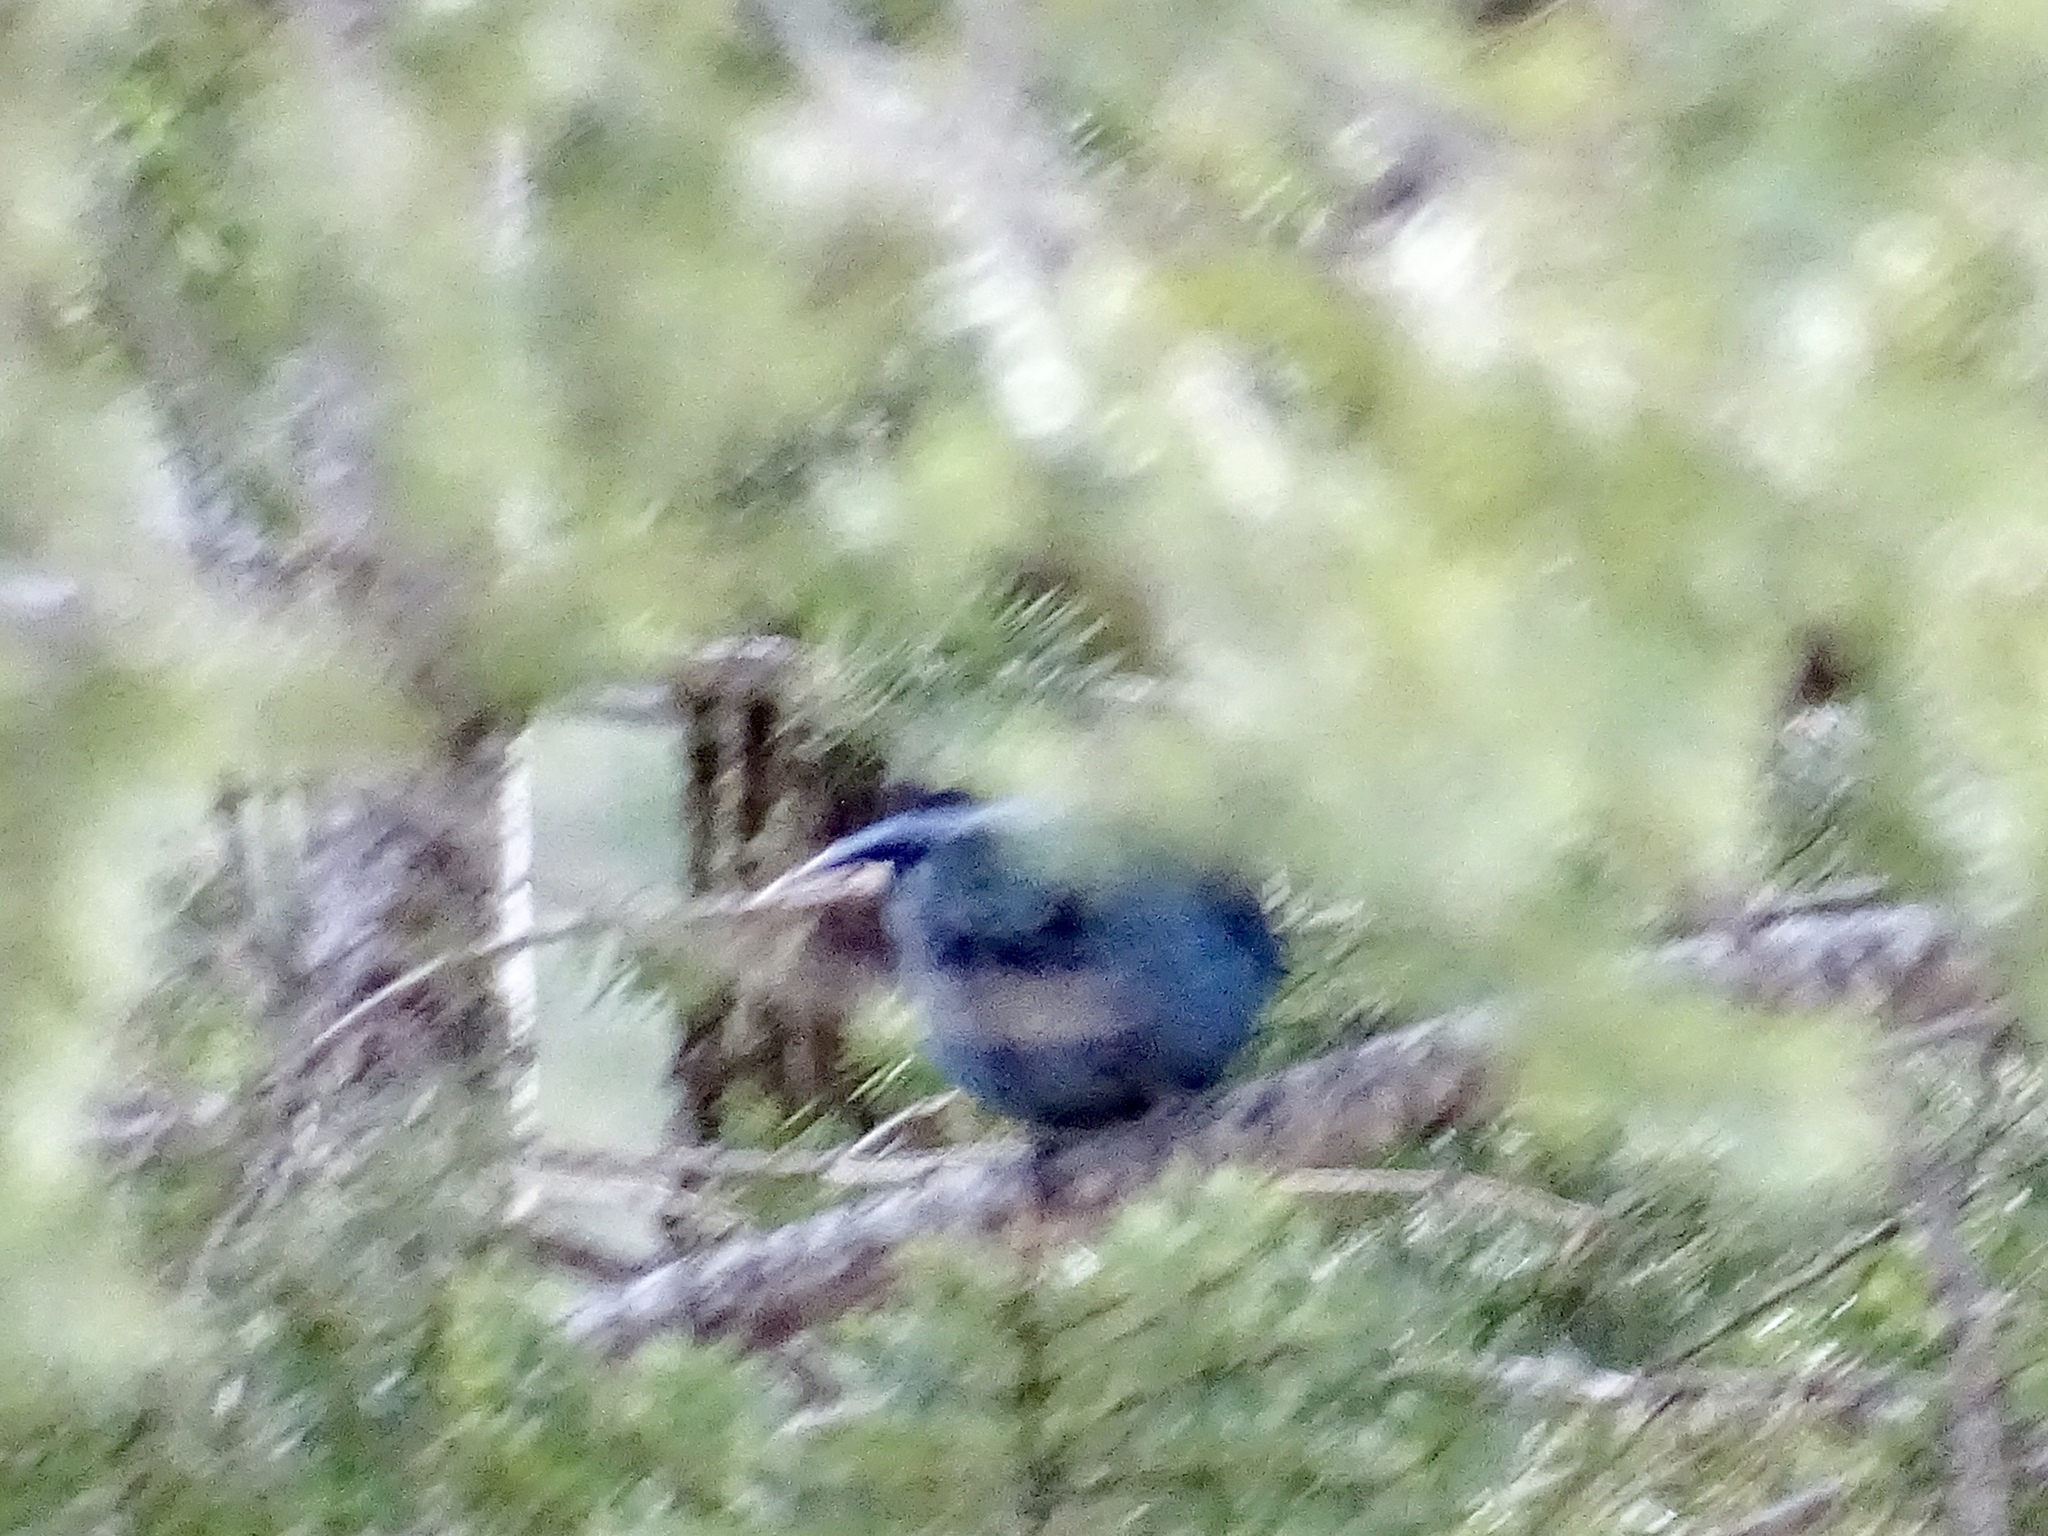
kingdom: Animalia
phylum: Chordata
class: Aves
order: Passeriformes
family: Corvidae
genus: Cyanocitta
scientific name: Cyanocitta stelleri
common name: Steller's jay
